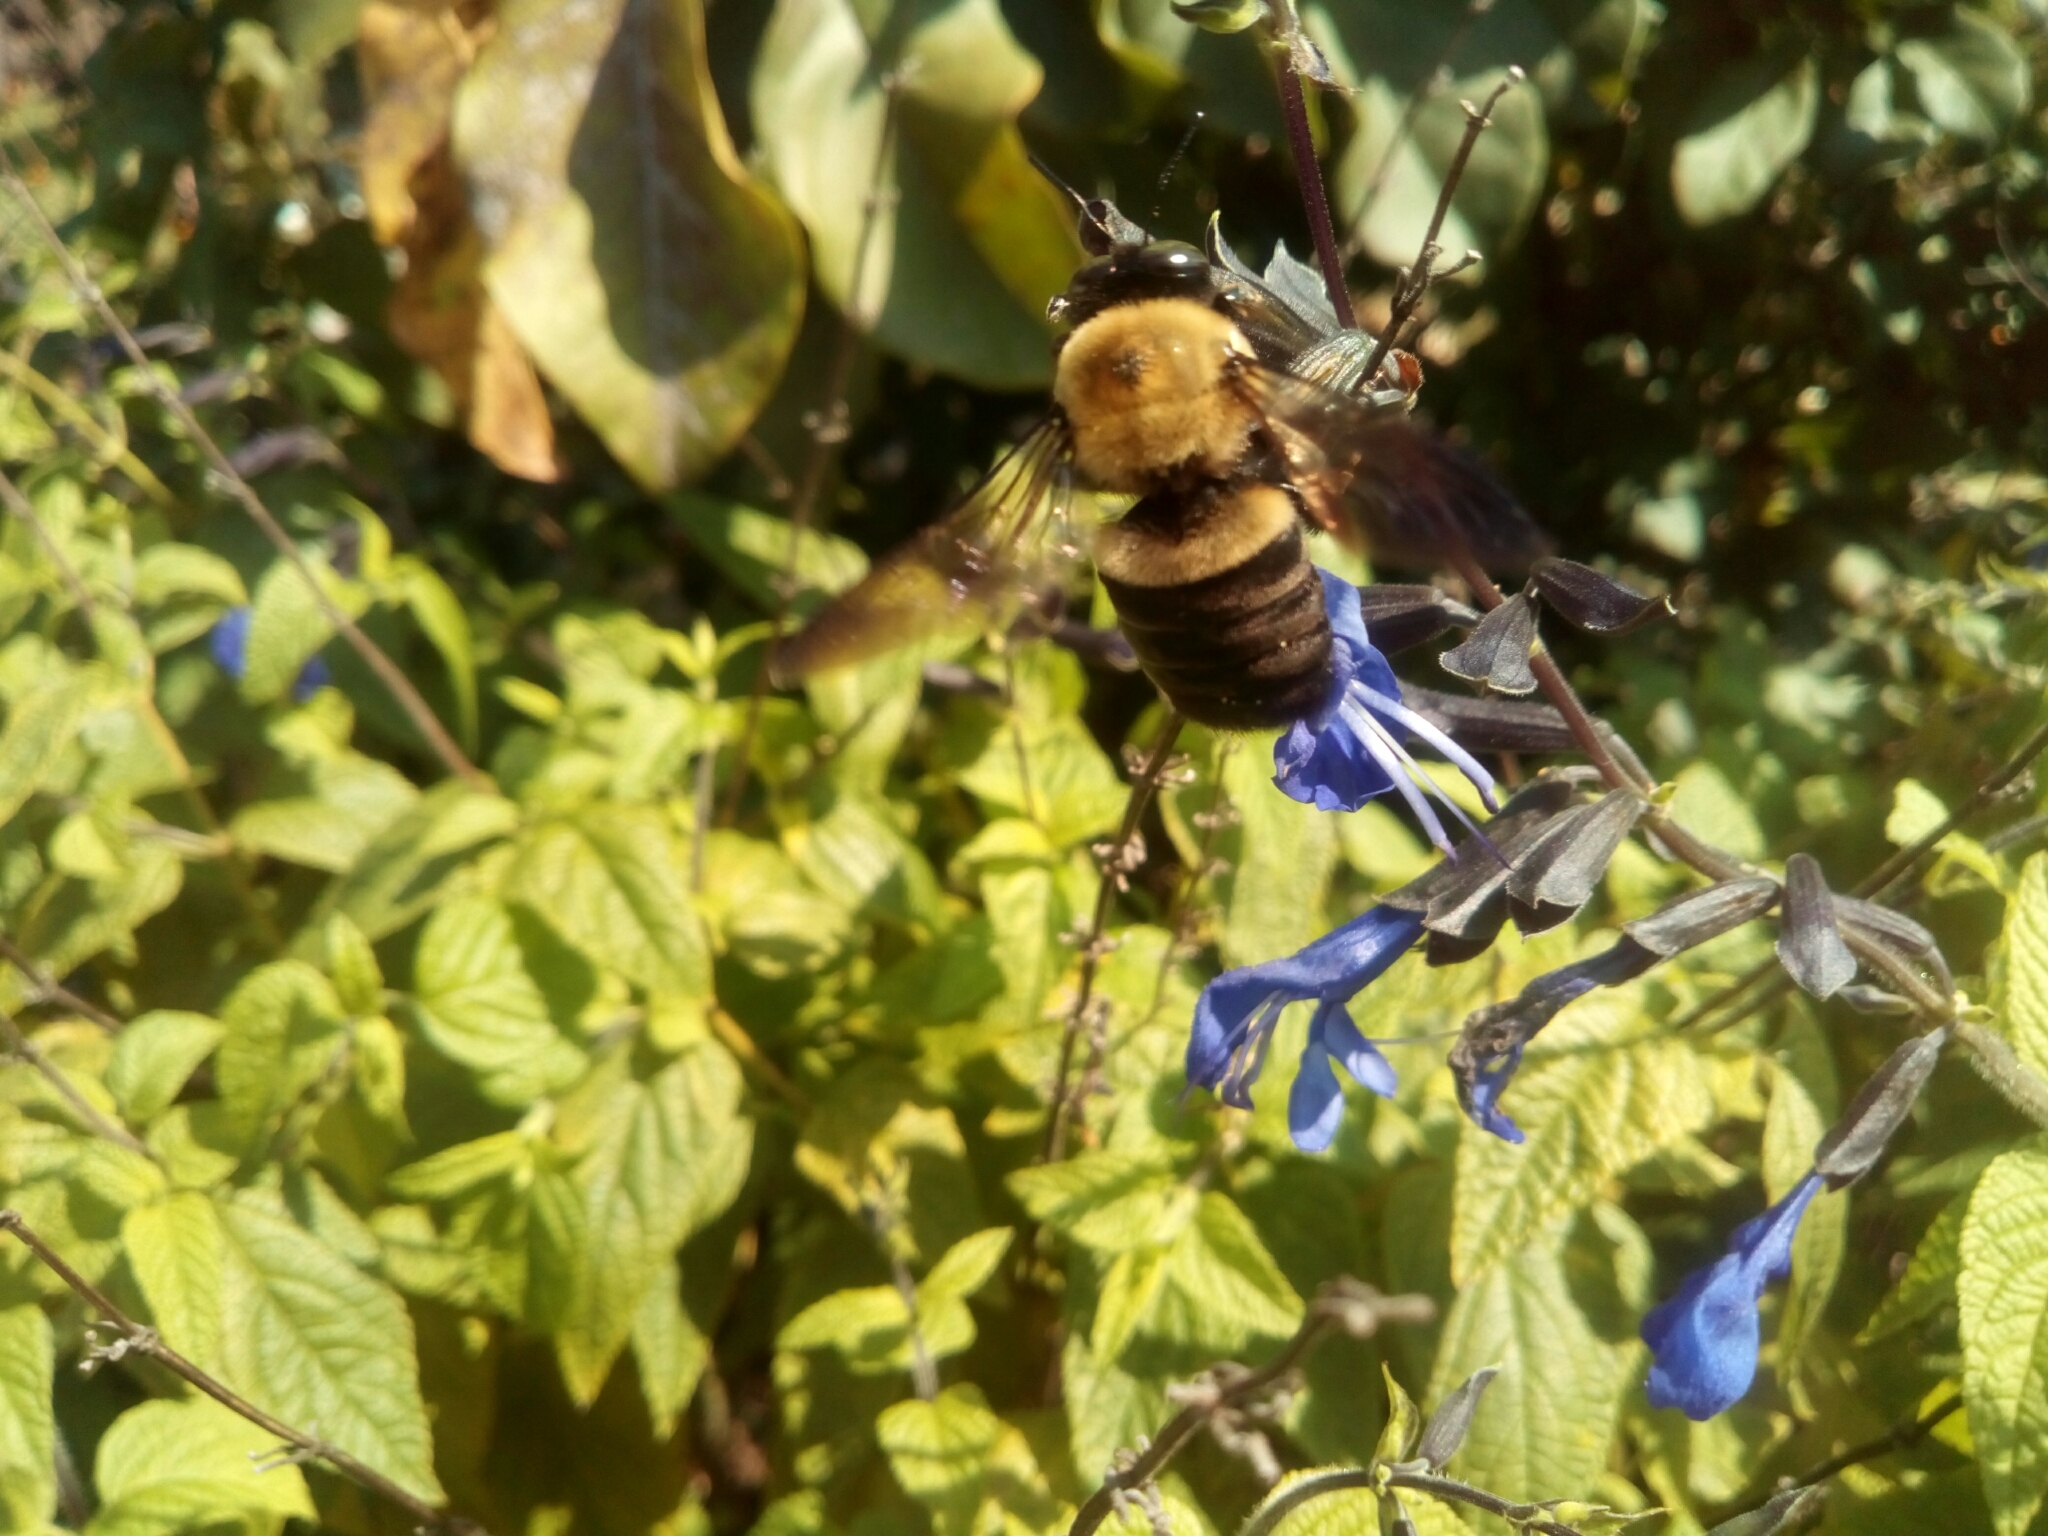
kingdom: Animalia
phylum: Arthropoda
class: Insecta
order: Hymenoptera
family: Apidae
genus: Xylocopa
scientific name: Xylocopa virginica
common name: Carpenter bee
